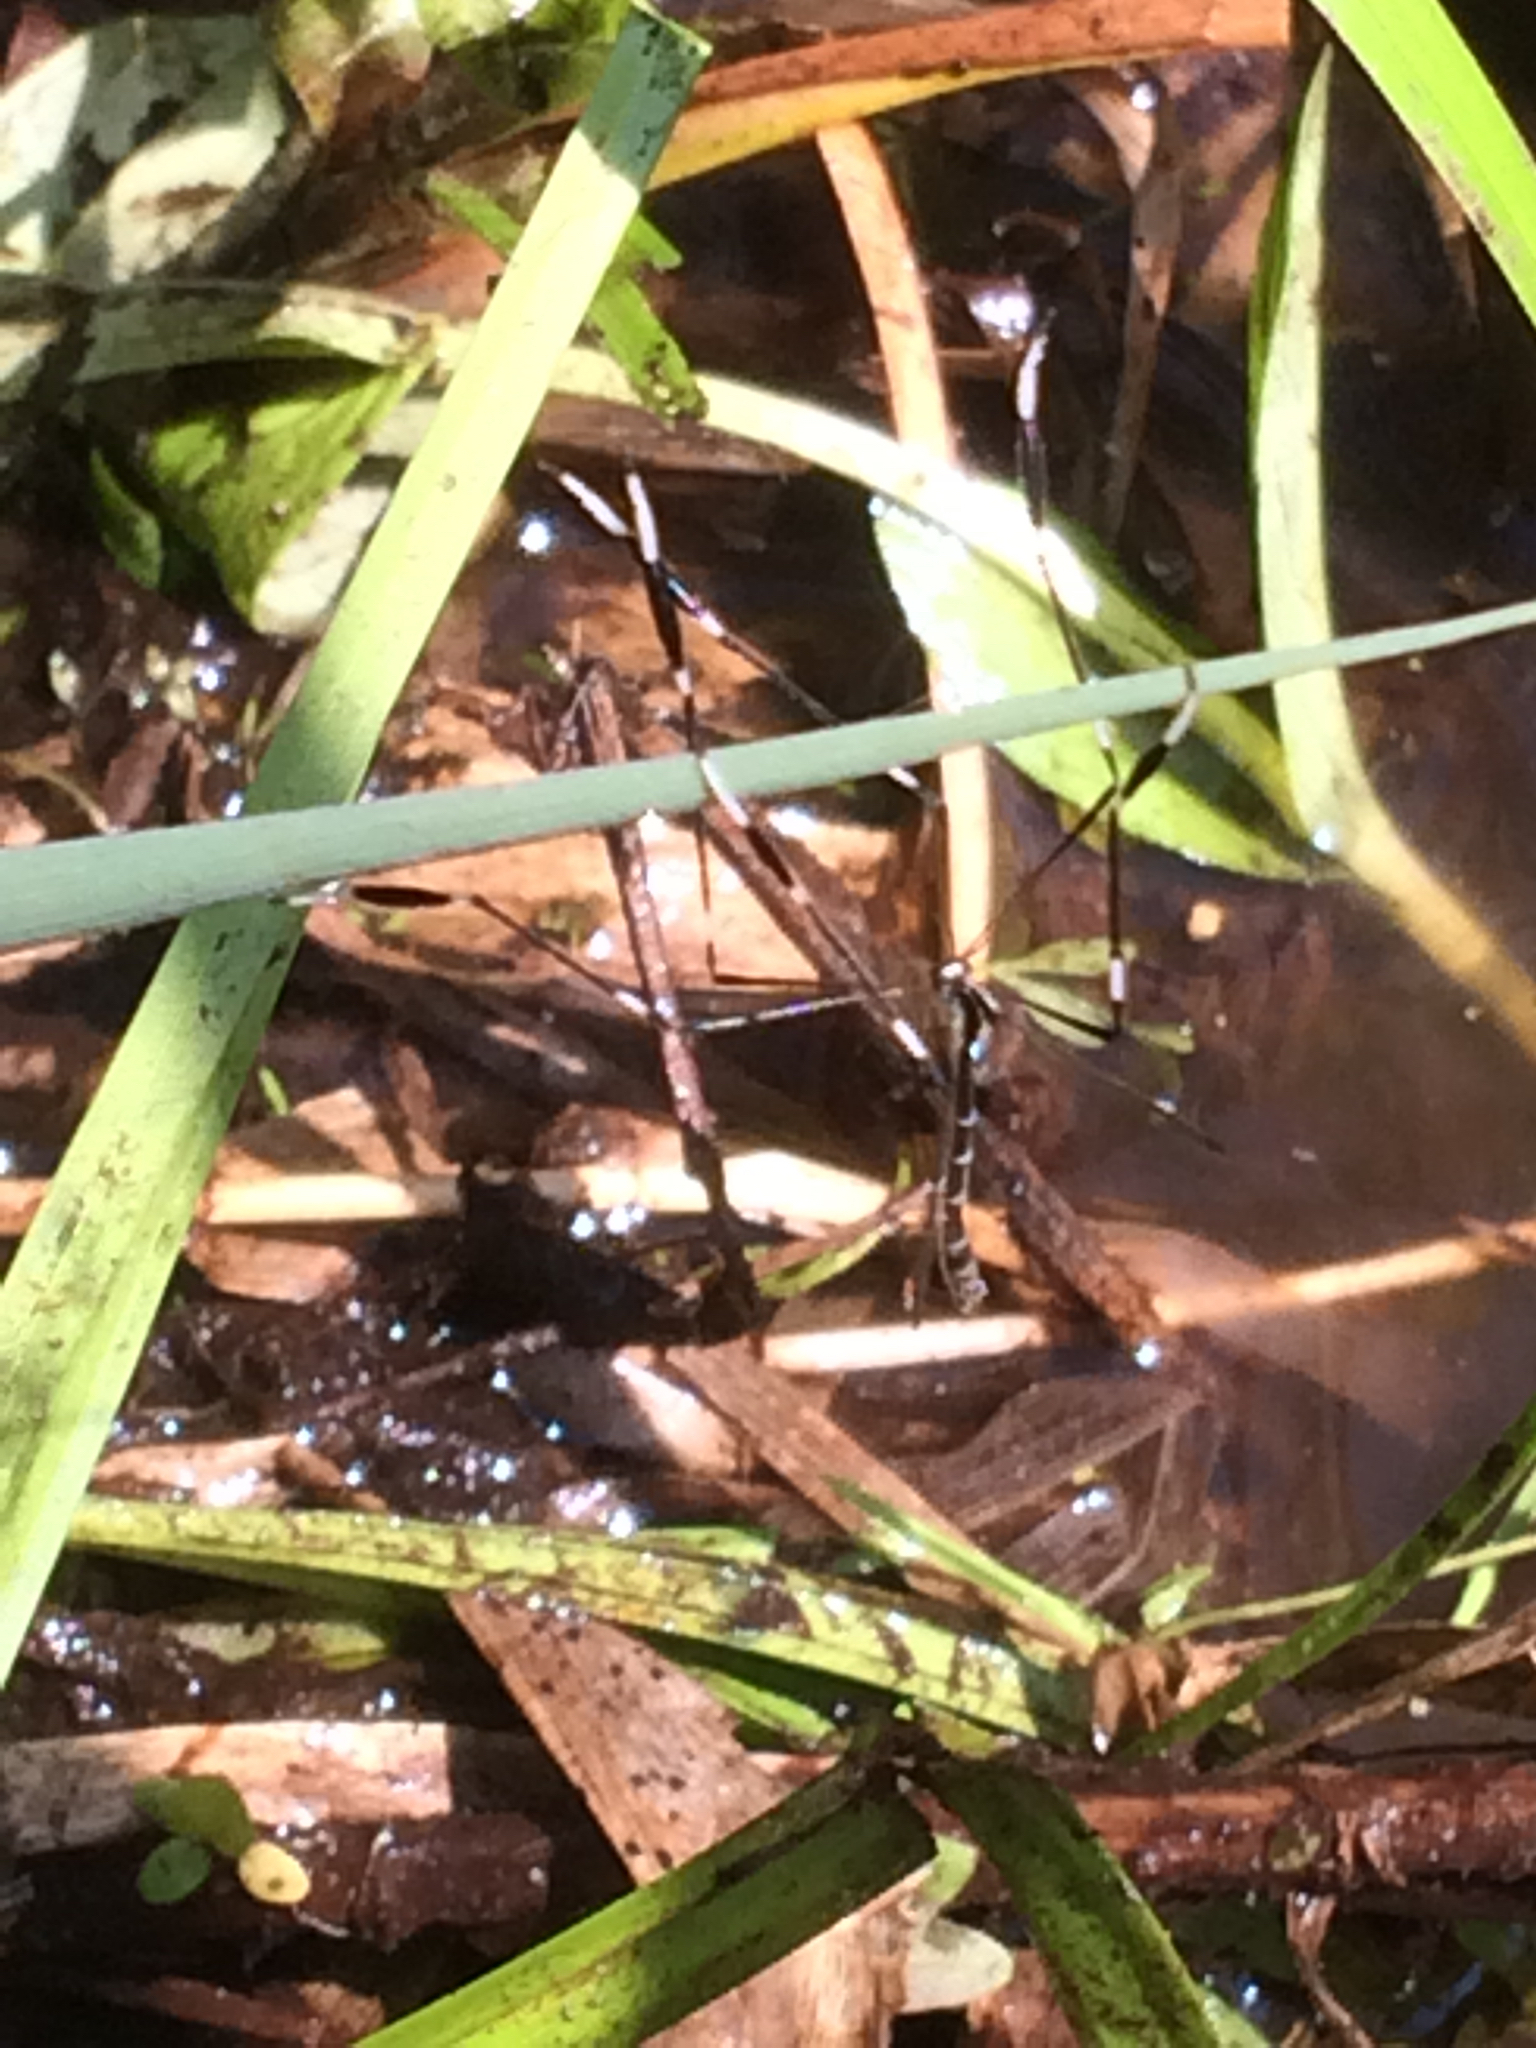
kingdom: Animalia
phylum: Arthropoda
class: Insecta
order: Diptera
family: Ptychopteridae
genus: Bittacomorpha
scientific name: Bittacomorpha clavipes
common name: Eastern phantom crane fly
